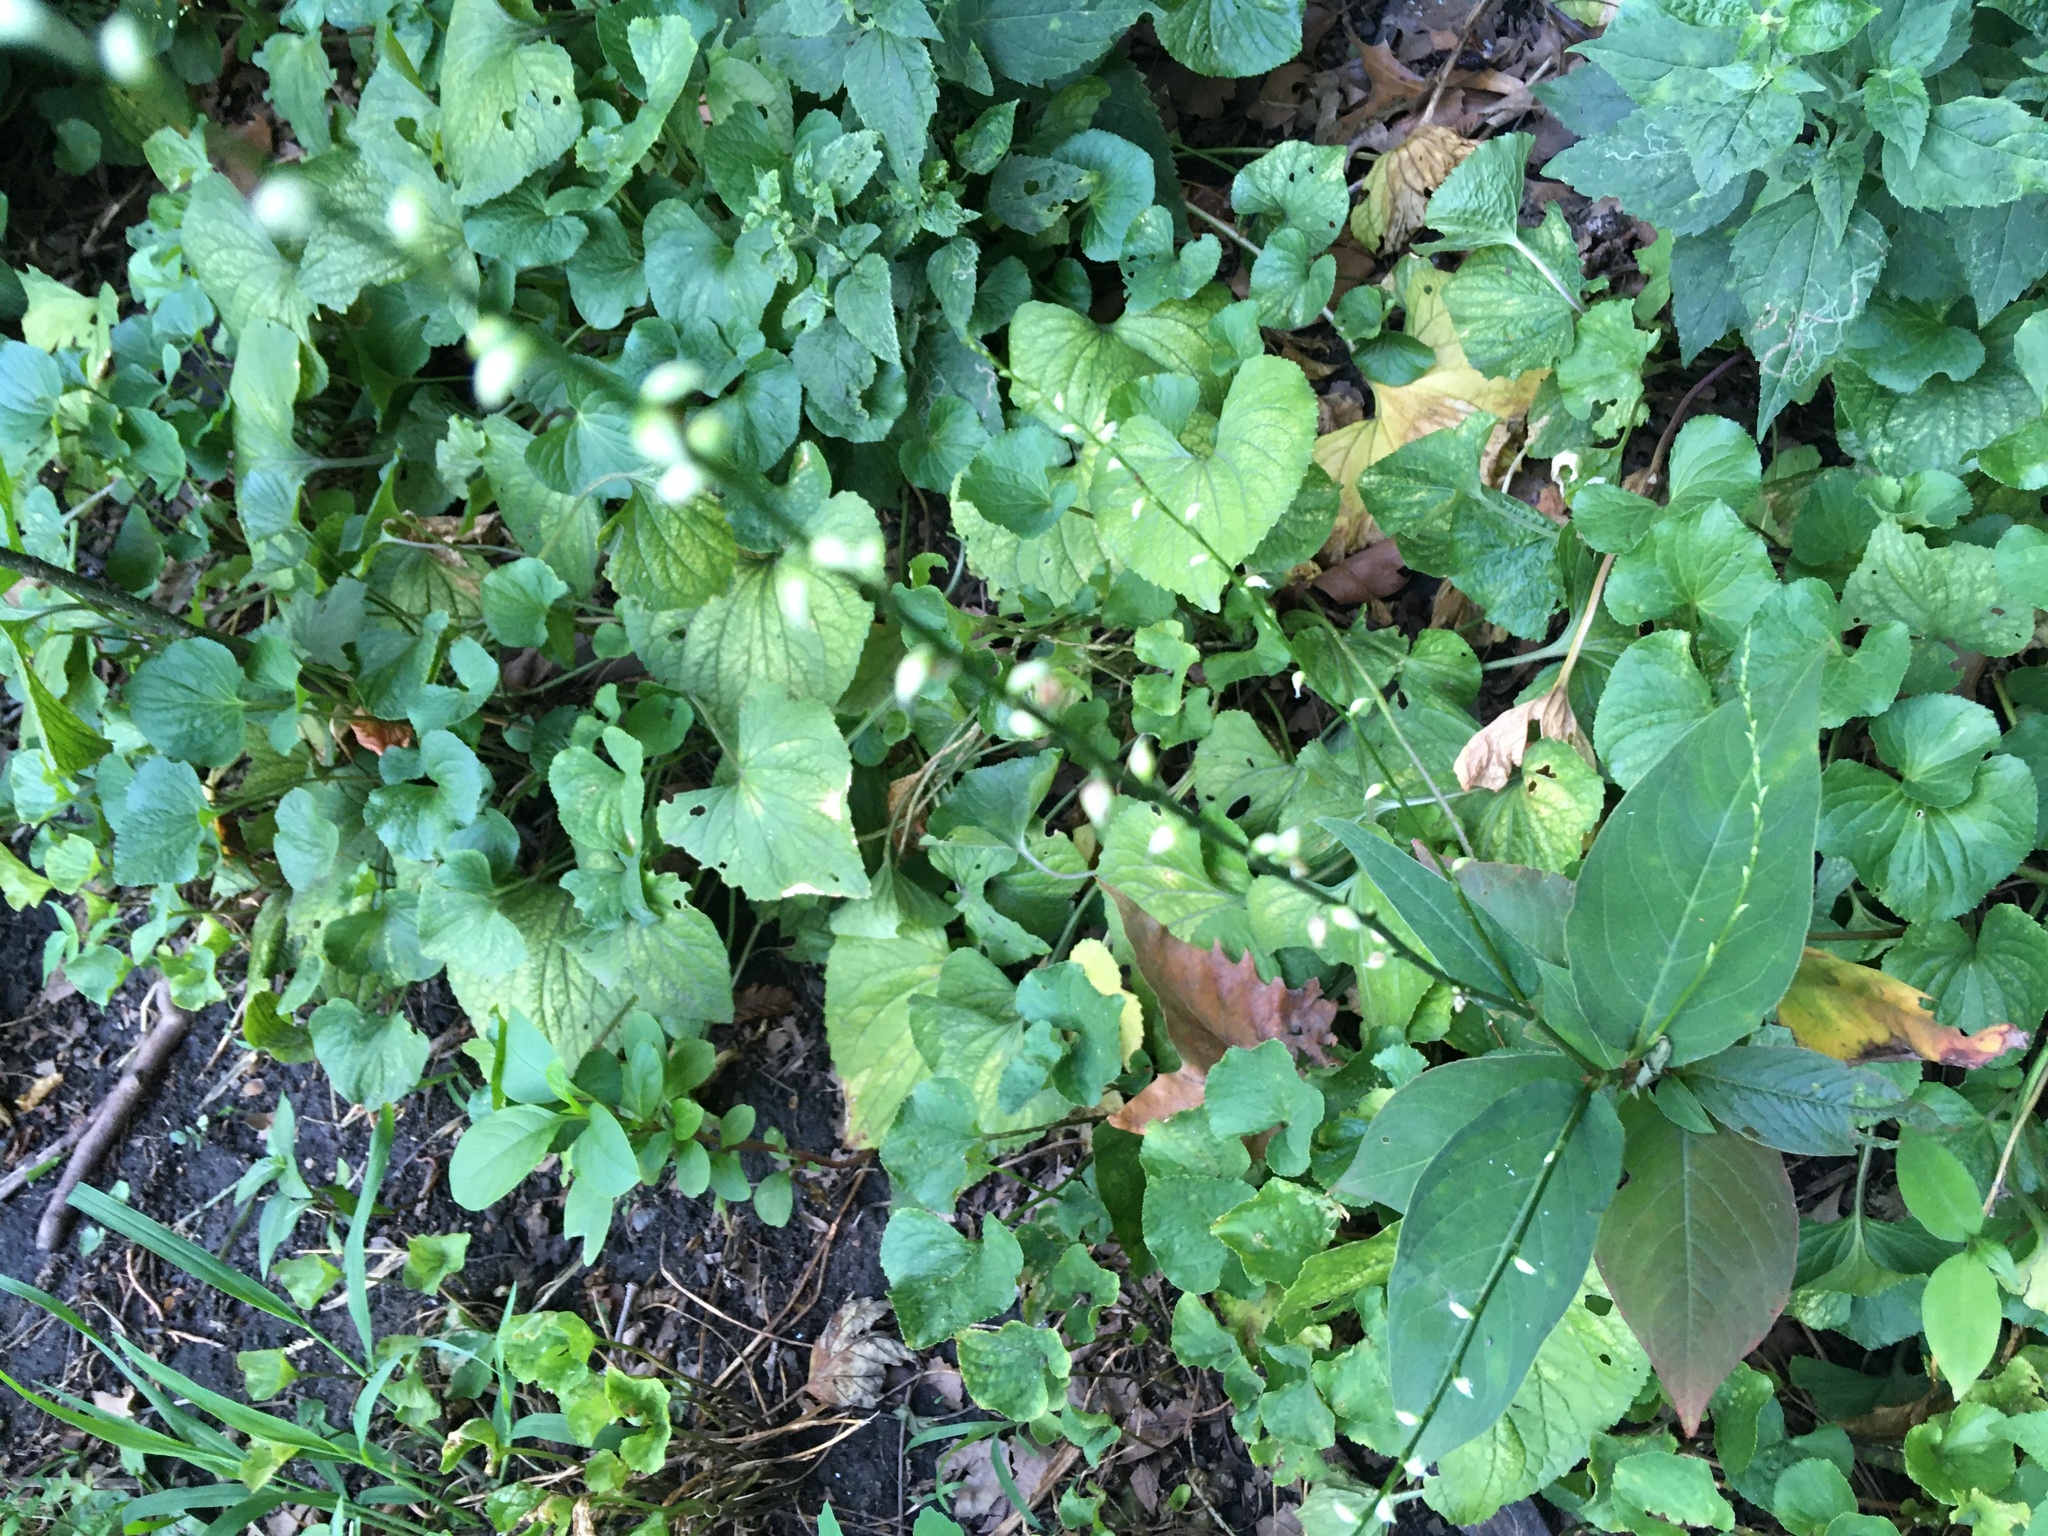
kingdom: Plantae
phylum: Tracheophyta
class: Magnoliopsida
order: Caryophyllales
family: Polygonaceae
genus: Persicaria
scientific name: Persicaria virginiana
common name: Jumpseed
